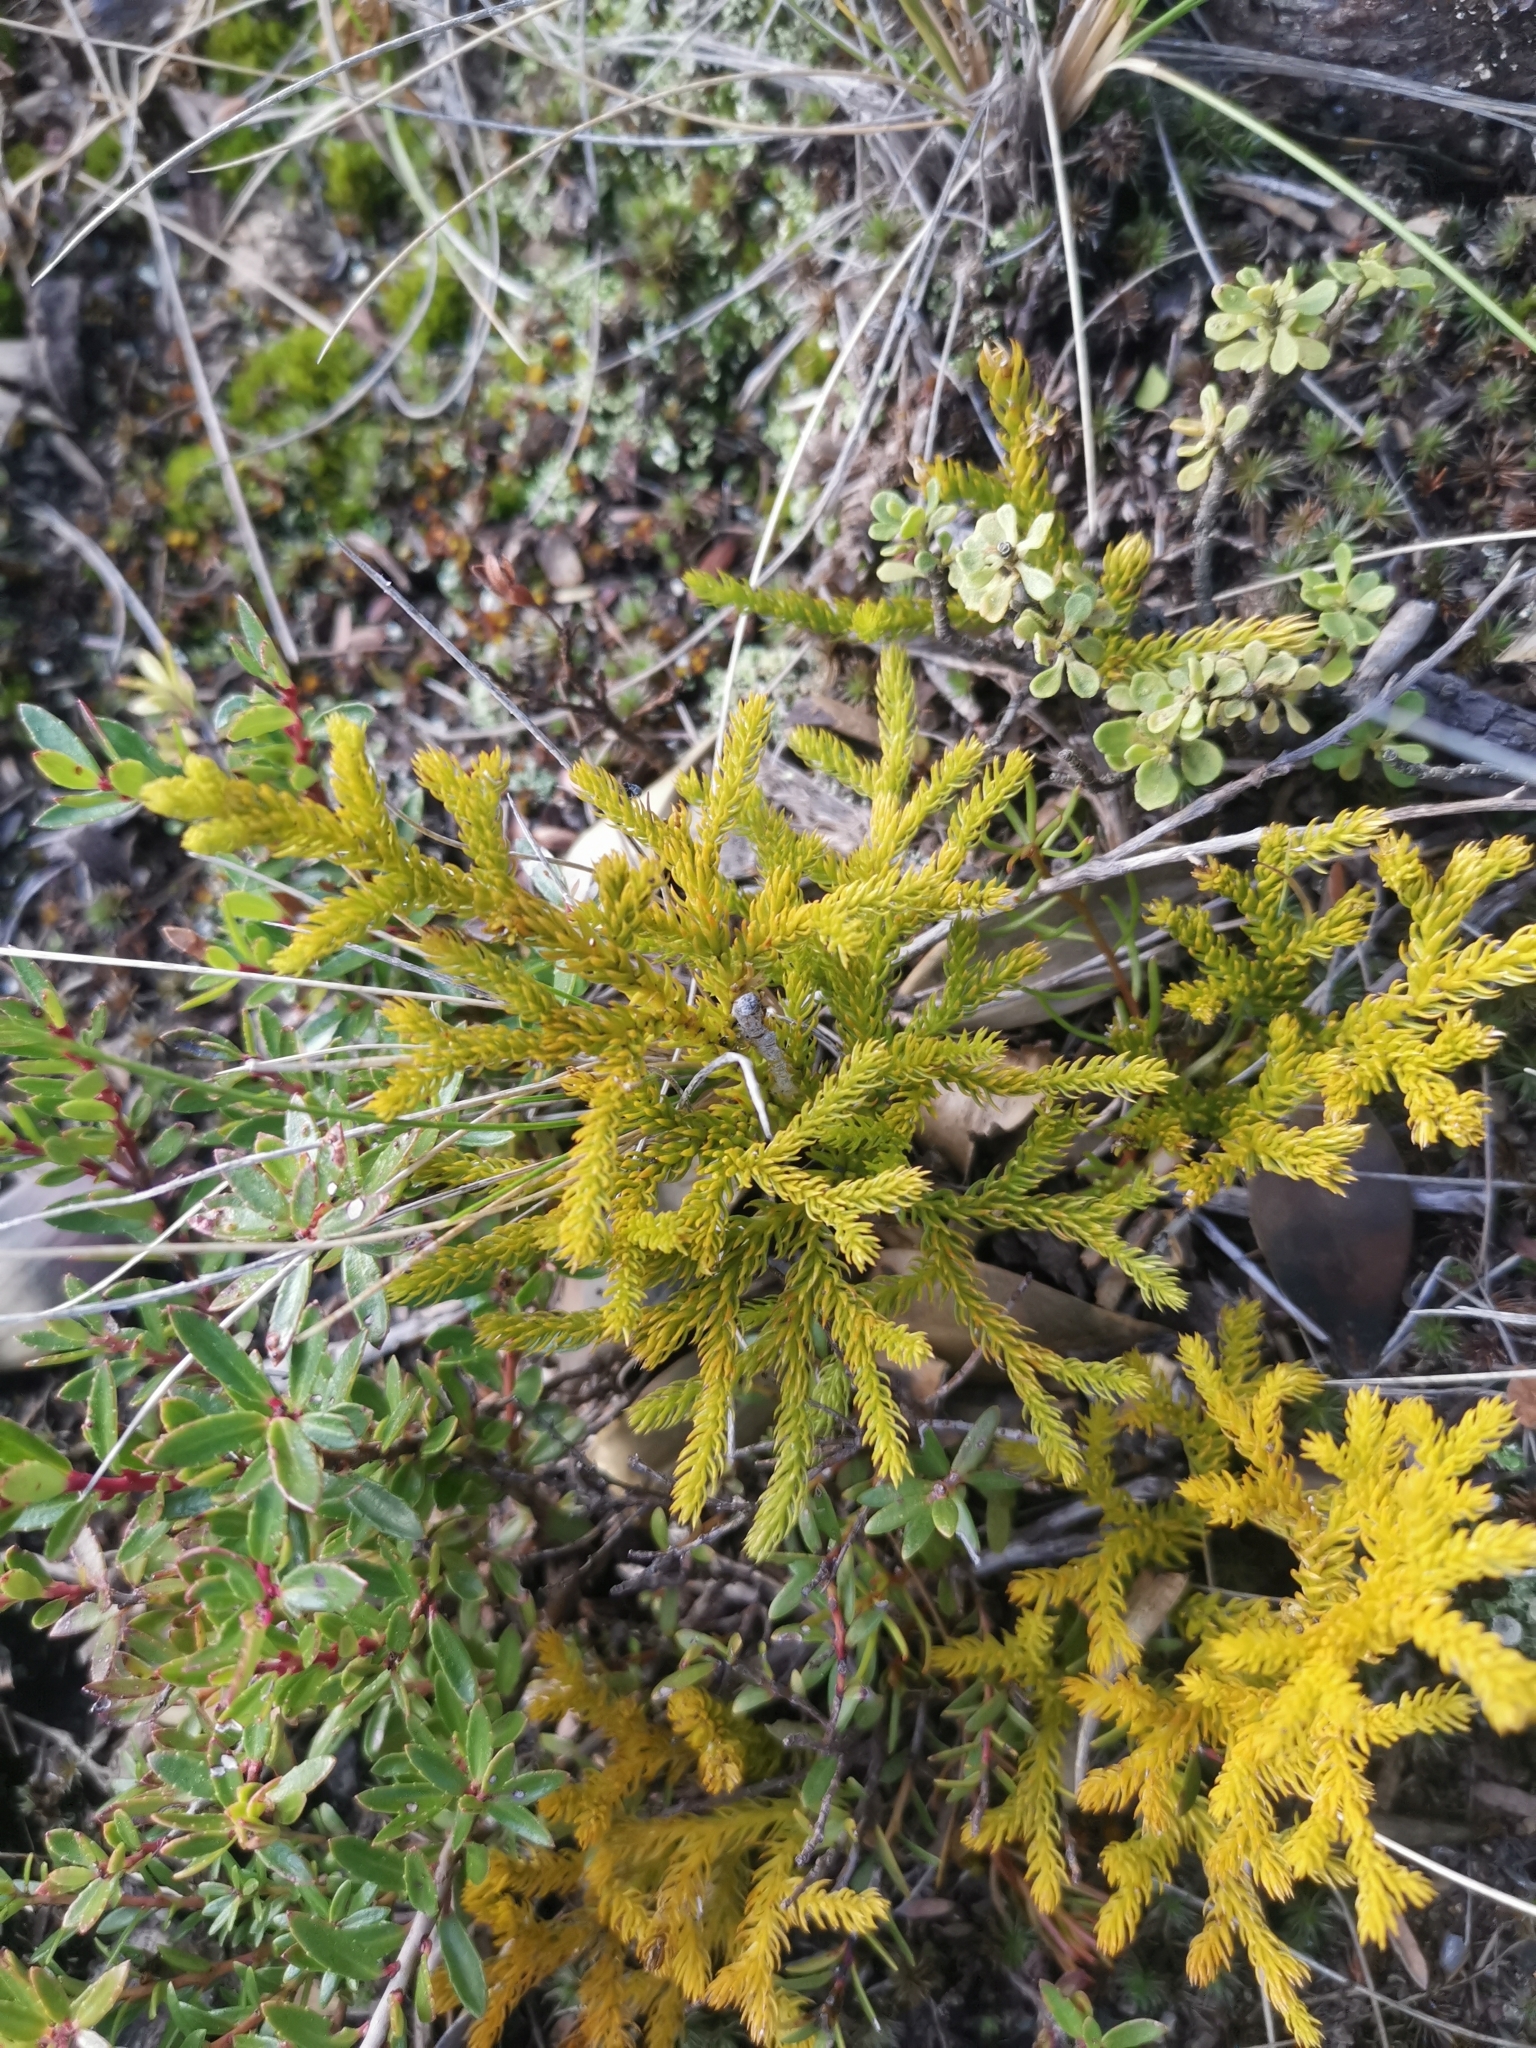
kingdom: Plantae
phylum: Tracheophyta
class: Lycopodiopsida
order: Lycopodiales
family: Lycopodiaceae
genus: Austrolycopodium
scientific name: Austrolycopodium paniculatum
